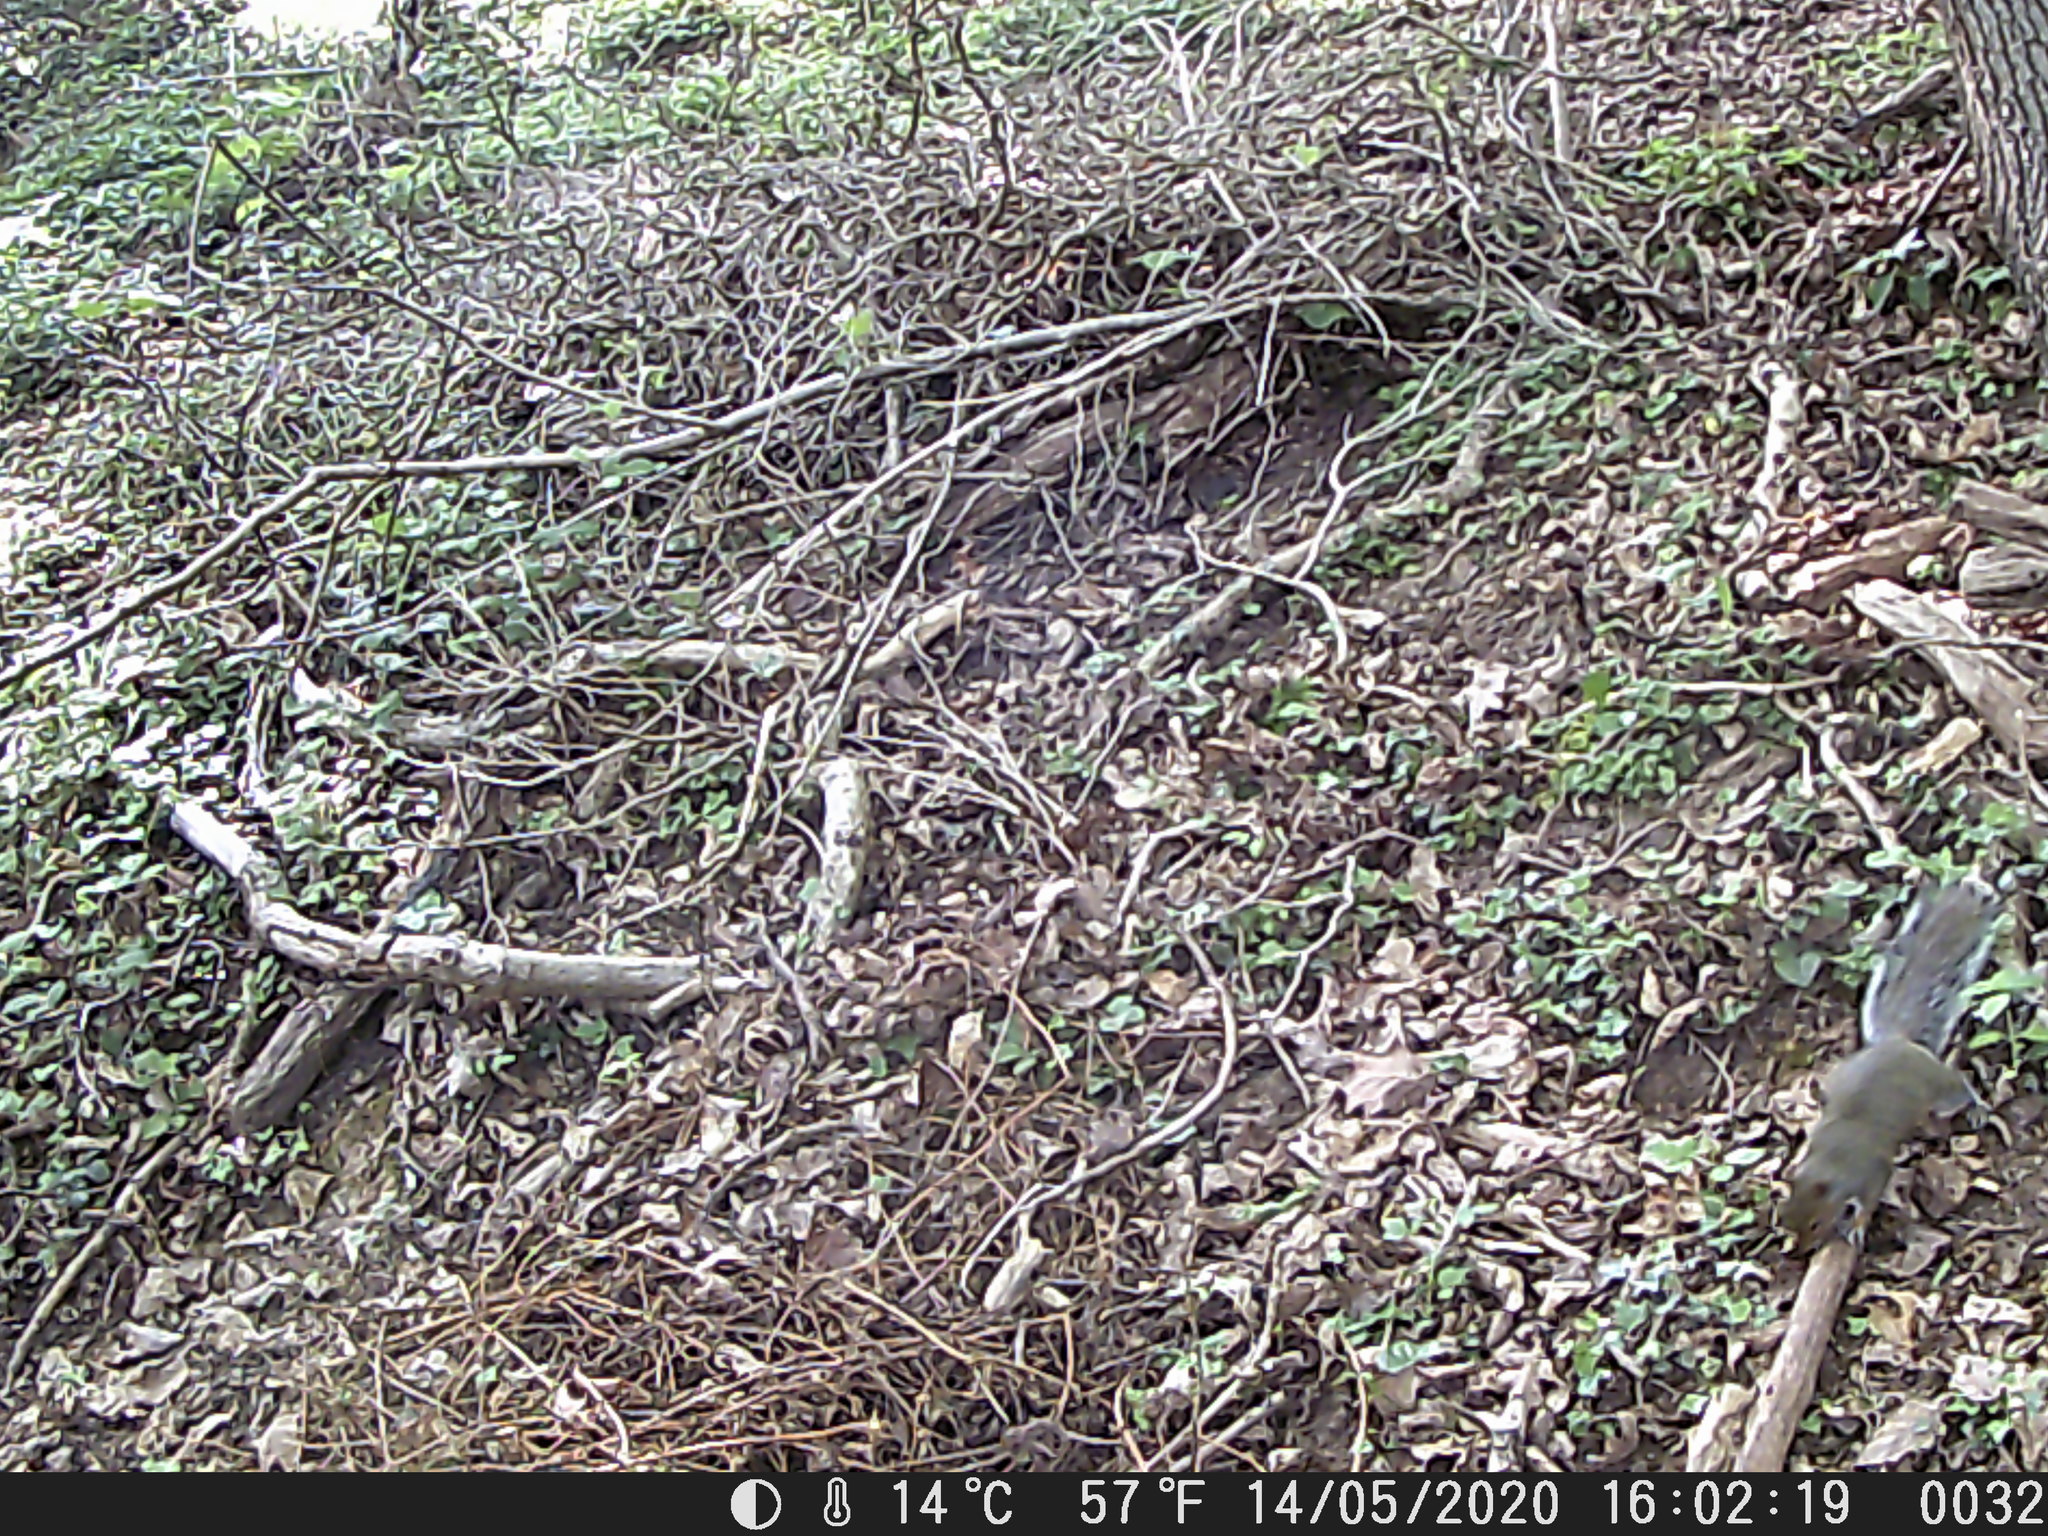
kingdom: Animalia
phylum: Chordata
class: Mammalia
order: Rodentia
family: Sciuridae
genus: Sciurus
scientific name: Sciurus carolinensis
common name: Eastern gray squirrel
